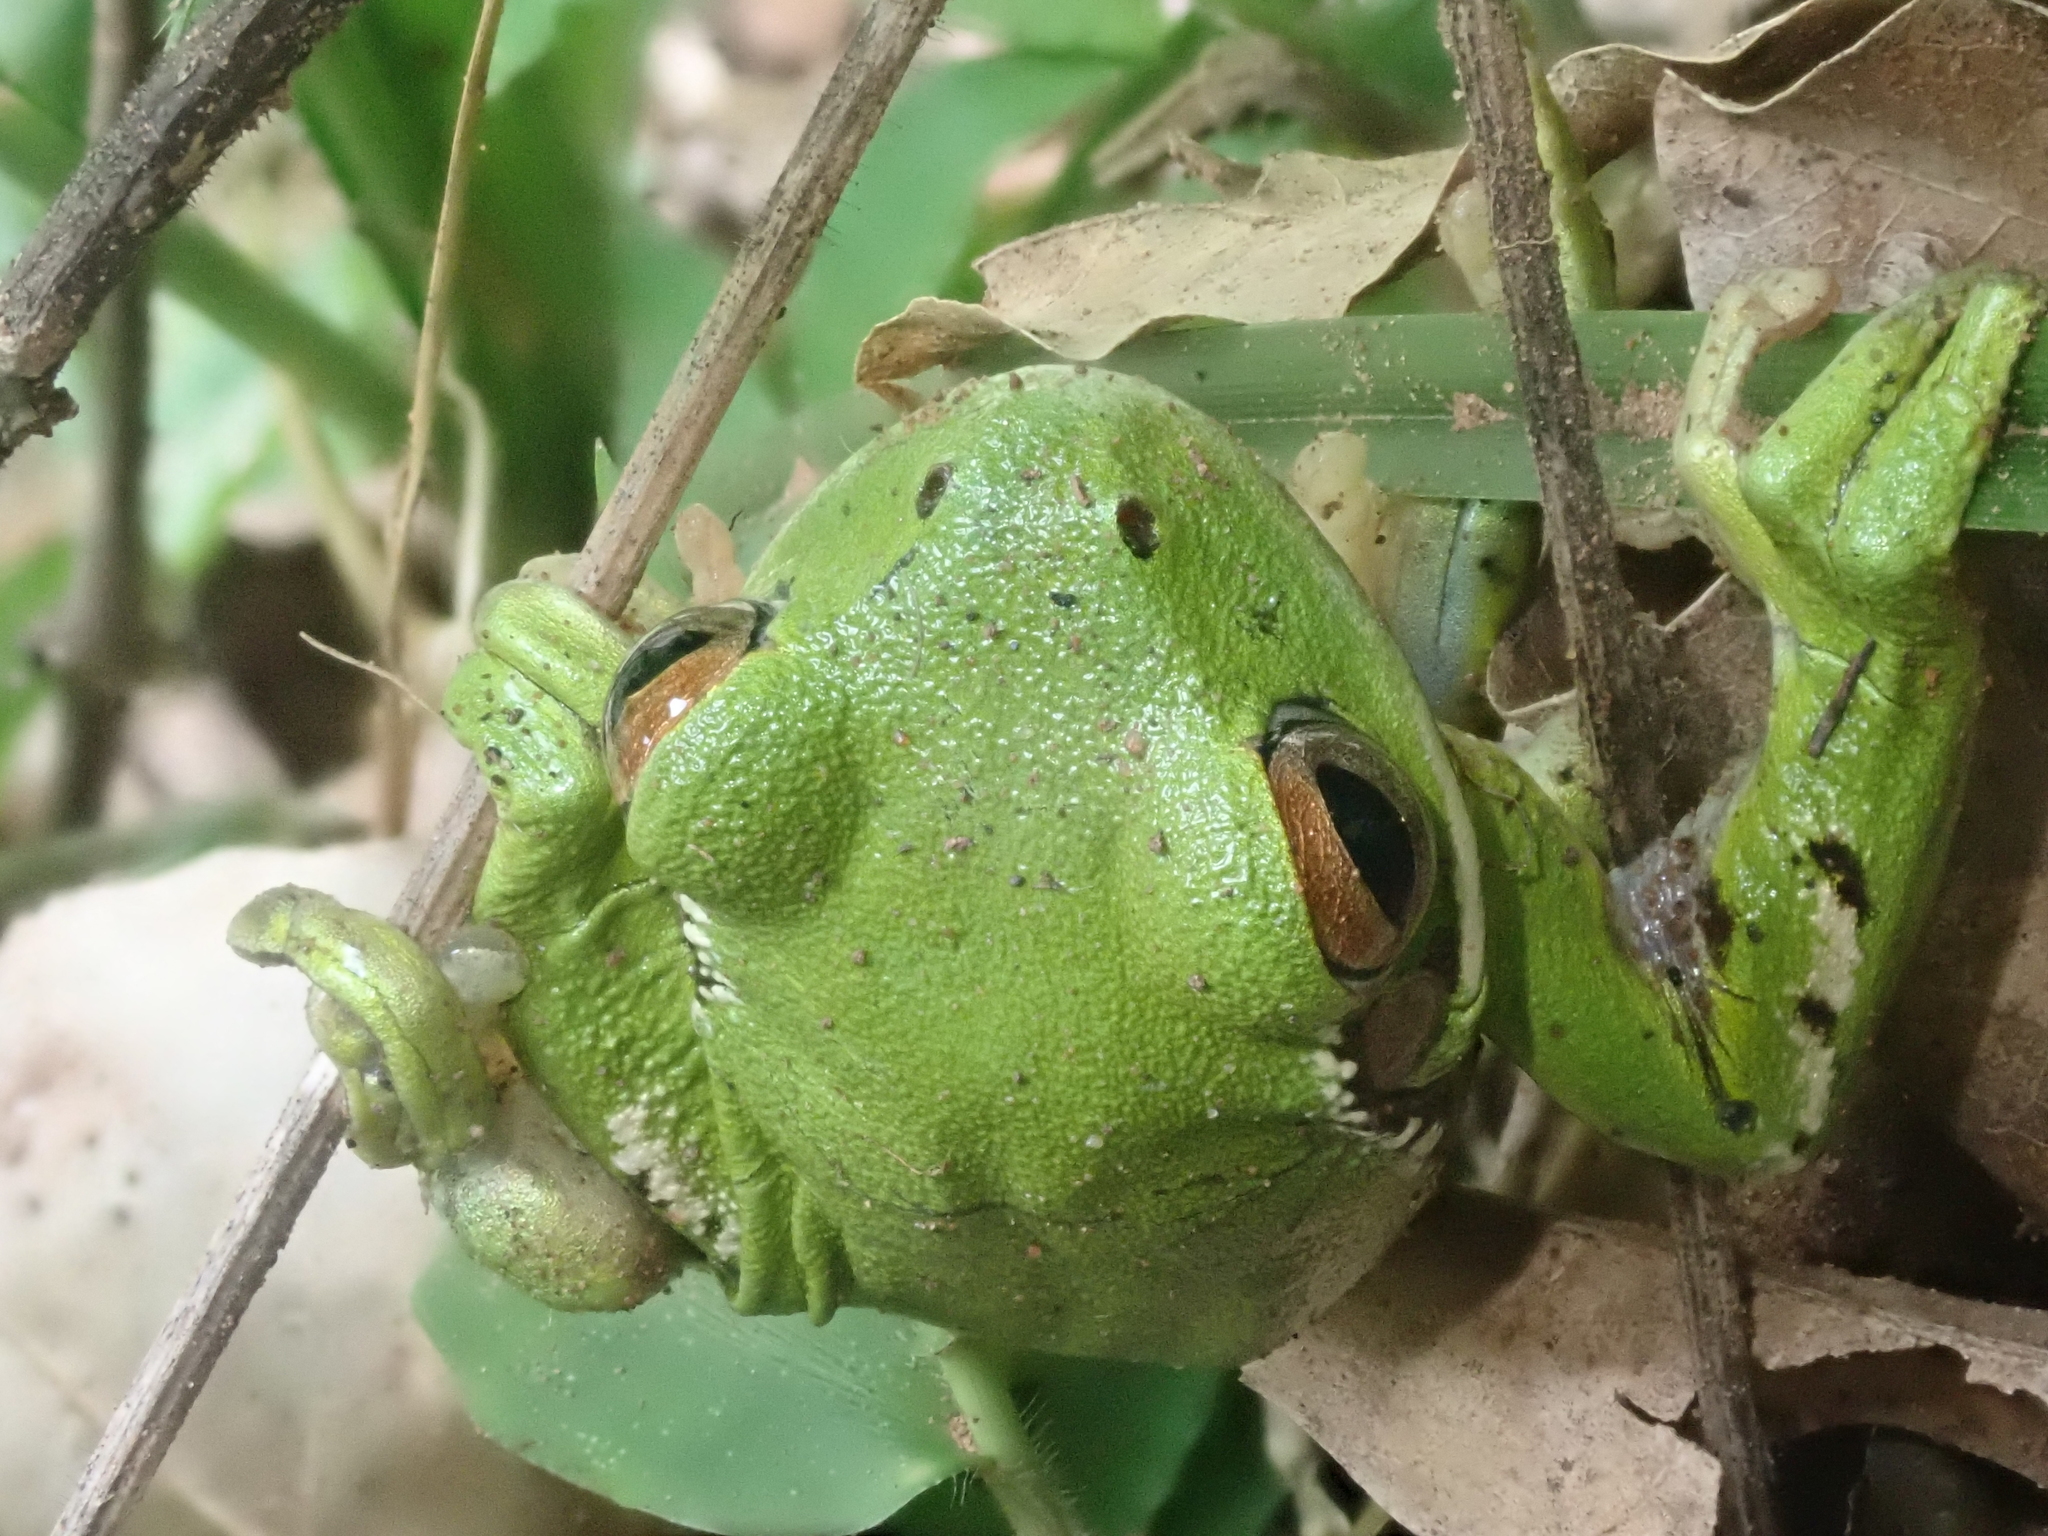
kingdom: Animalia
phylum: Chordata
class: Amphibia
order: Anura
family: Hylidae
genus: Boana
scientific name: Boana riojana
